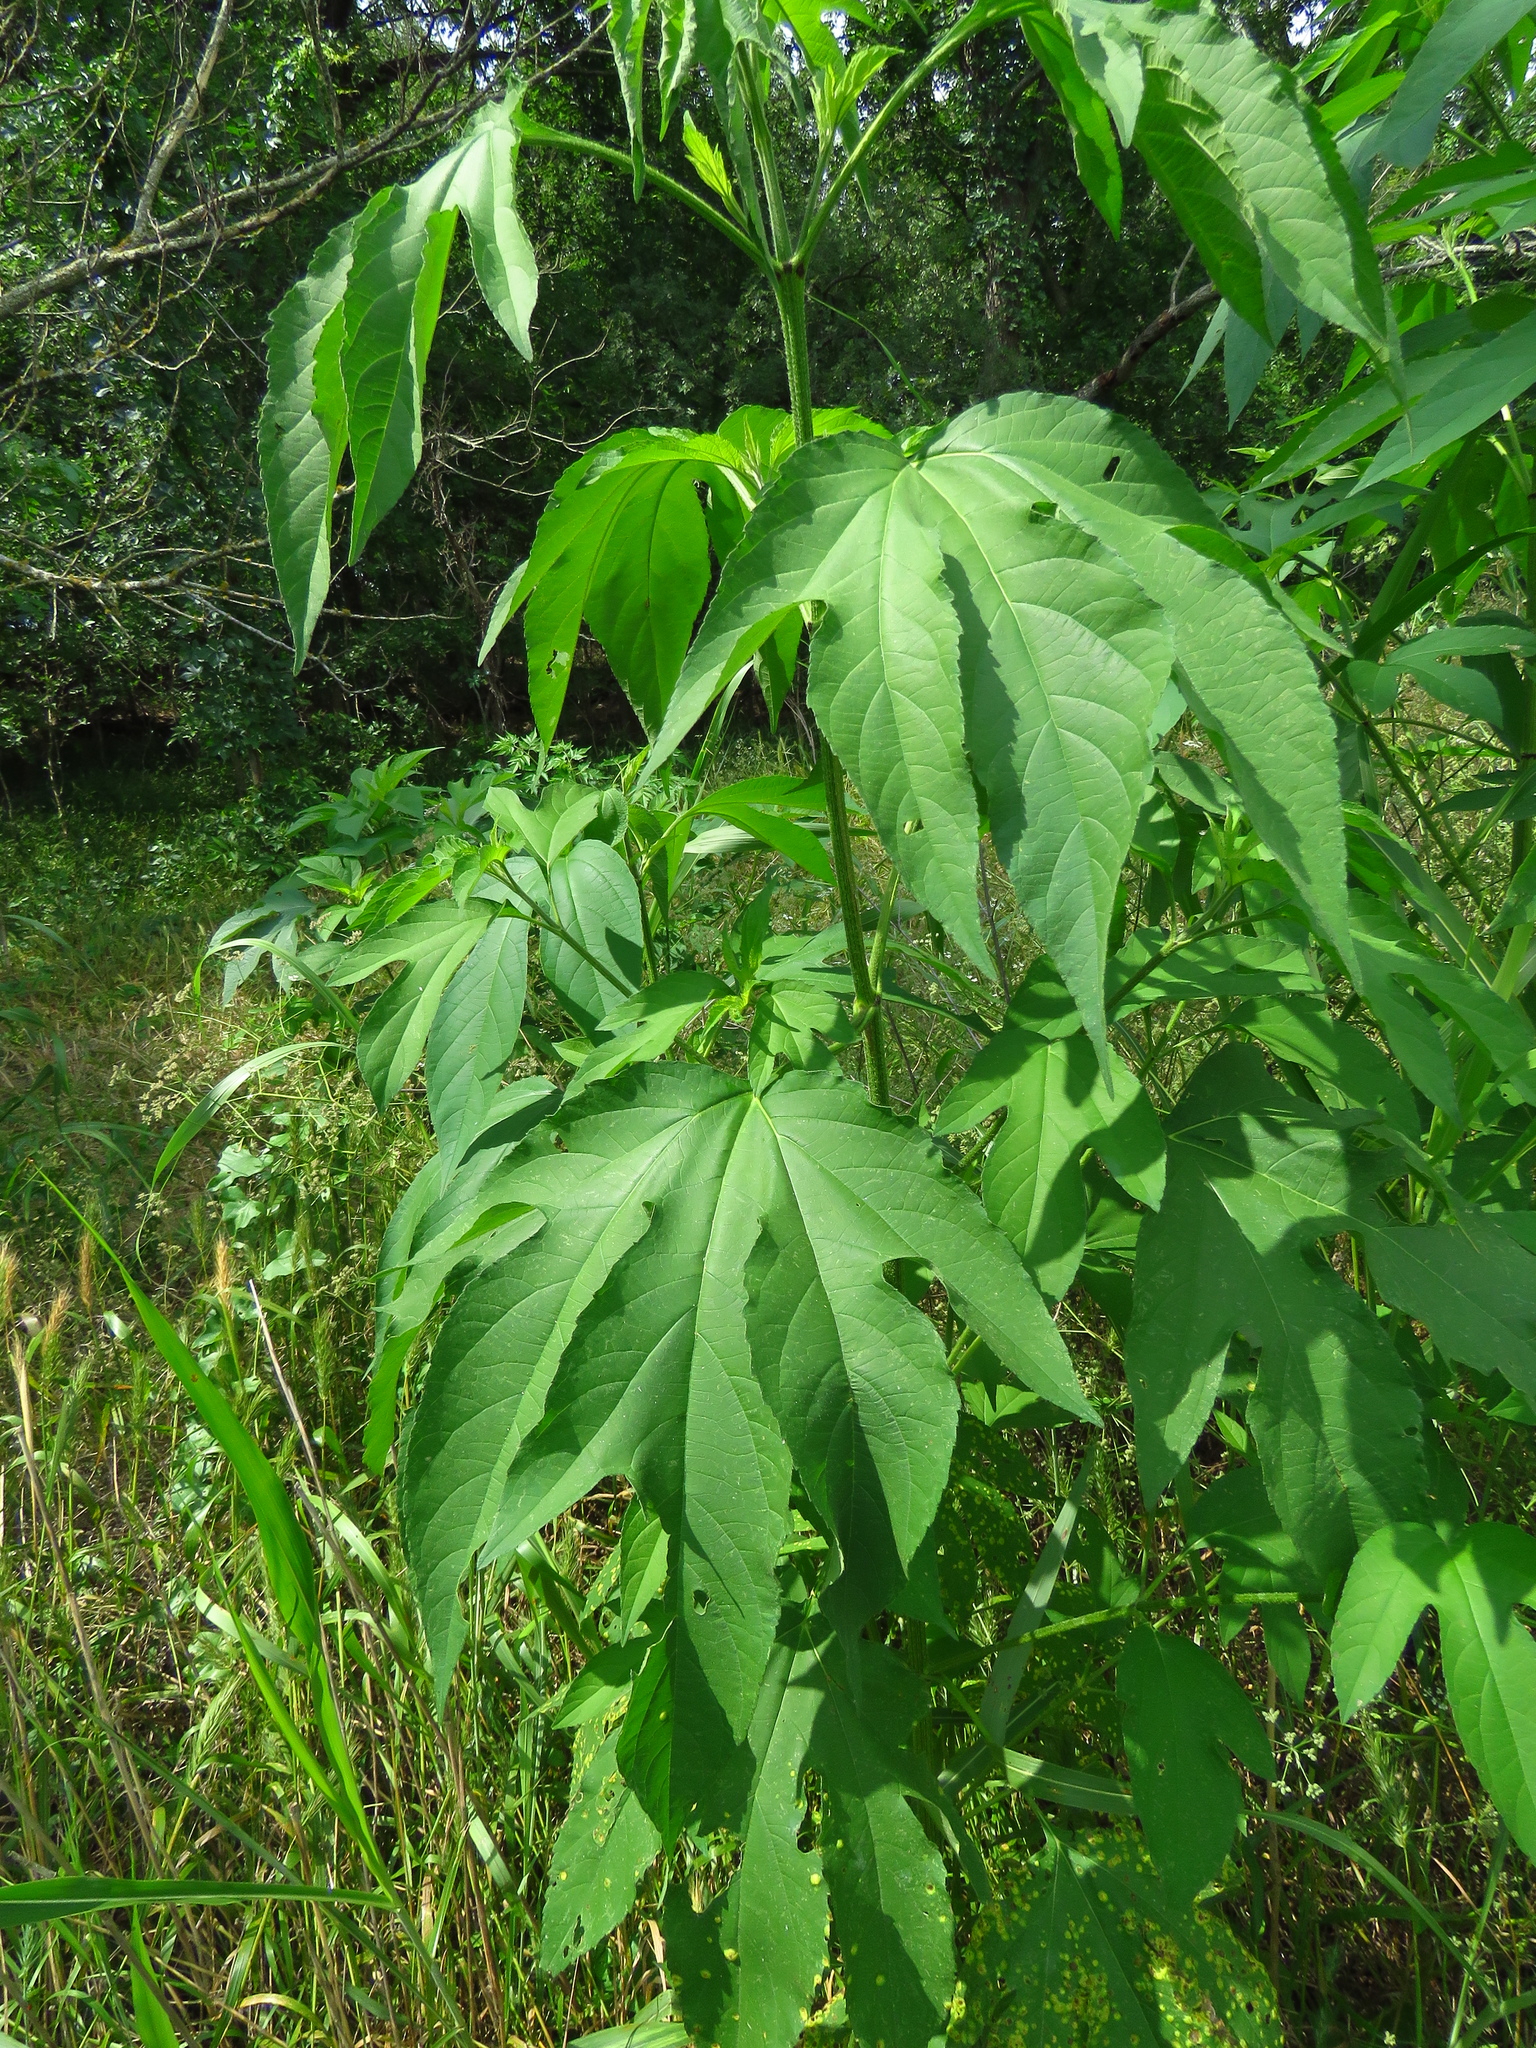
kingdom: Plantae
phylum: Tracheophyta
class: Magnoliopsida
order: Asterales
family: Asteraceae
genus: Ambrosia
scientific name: Ambrosia trifida
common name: Giant ragweed
